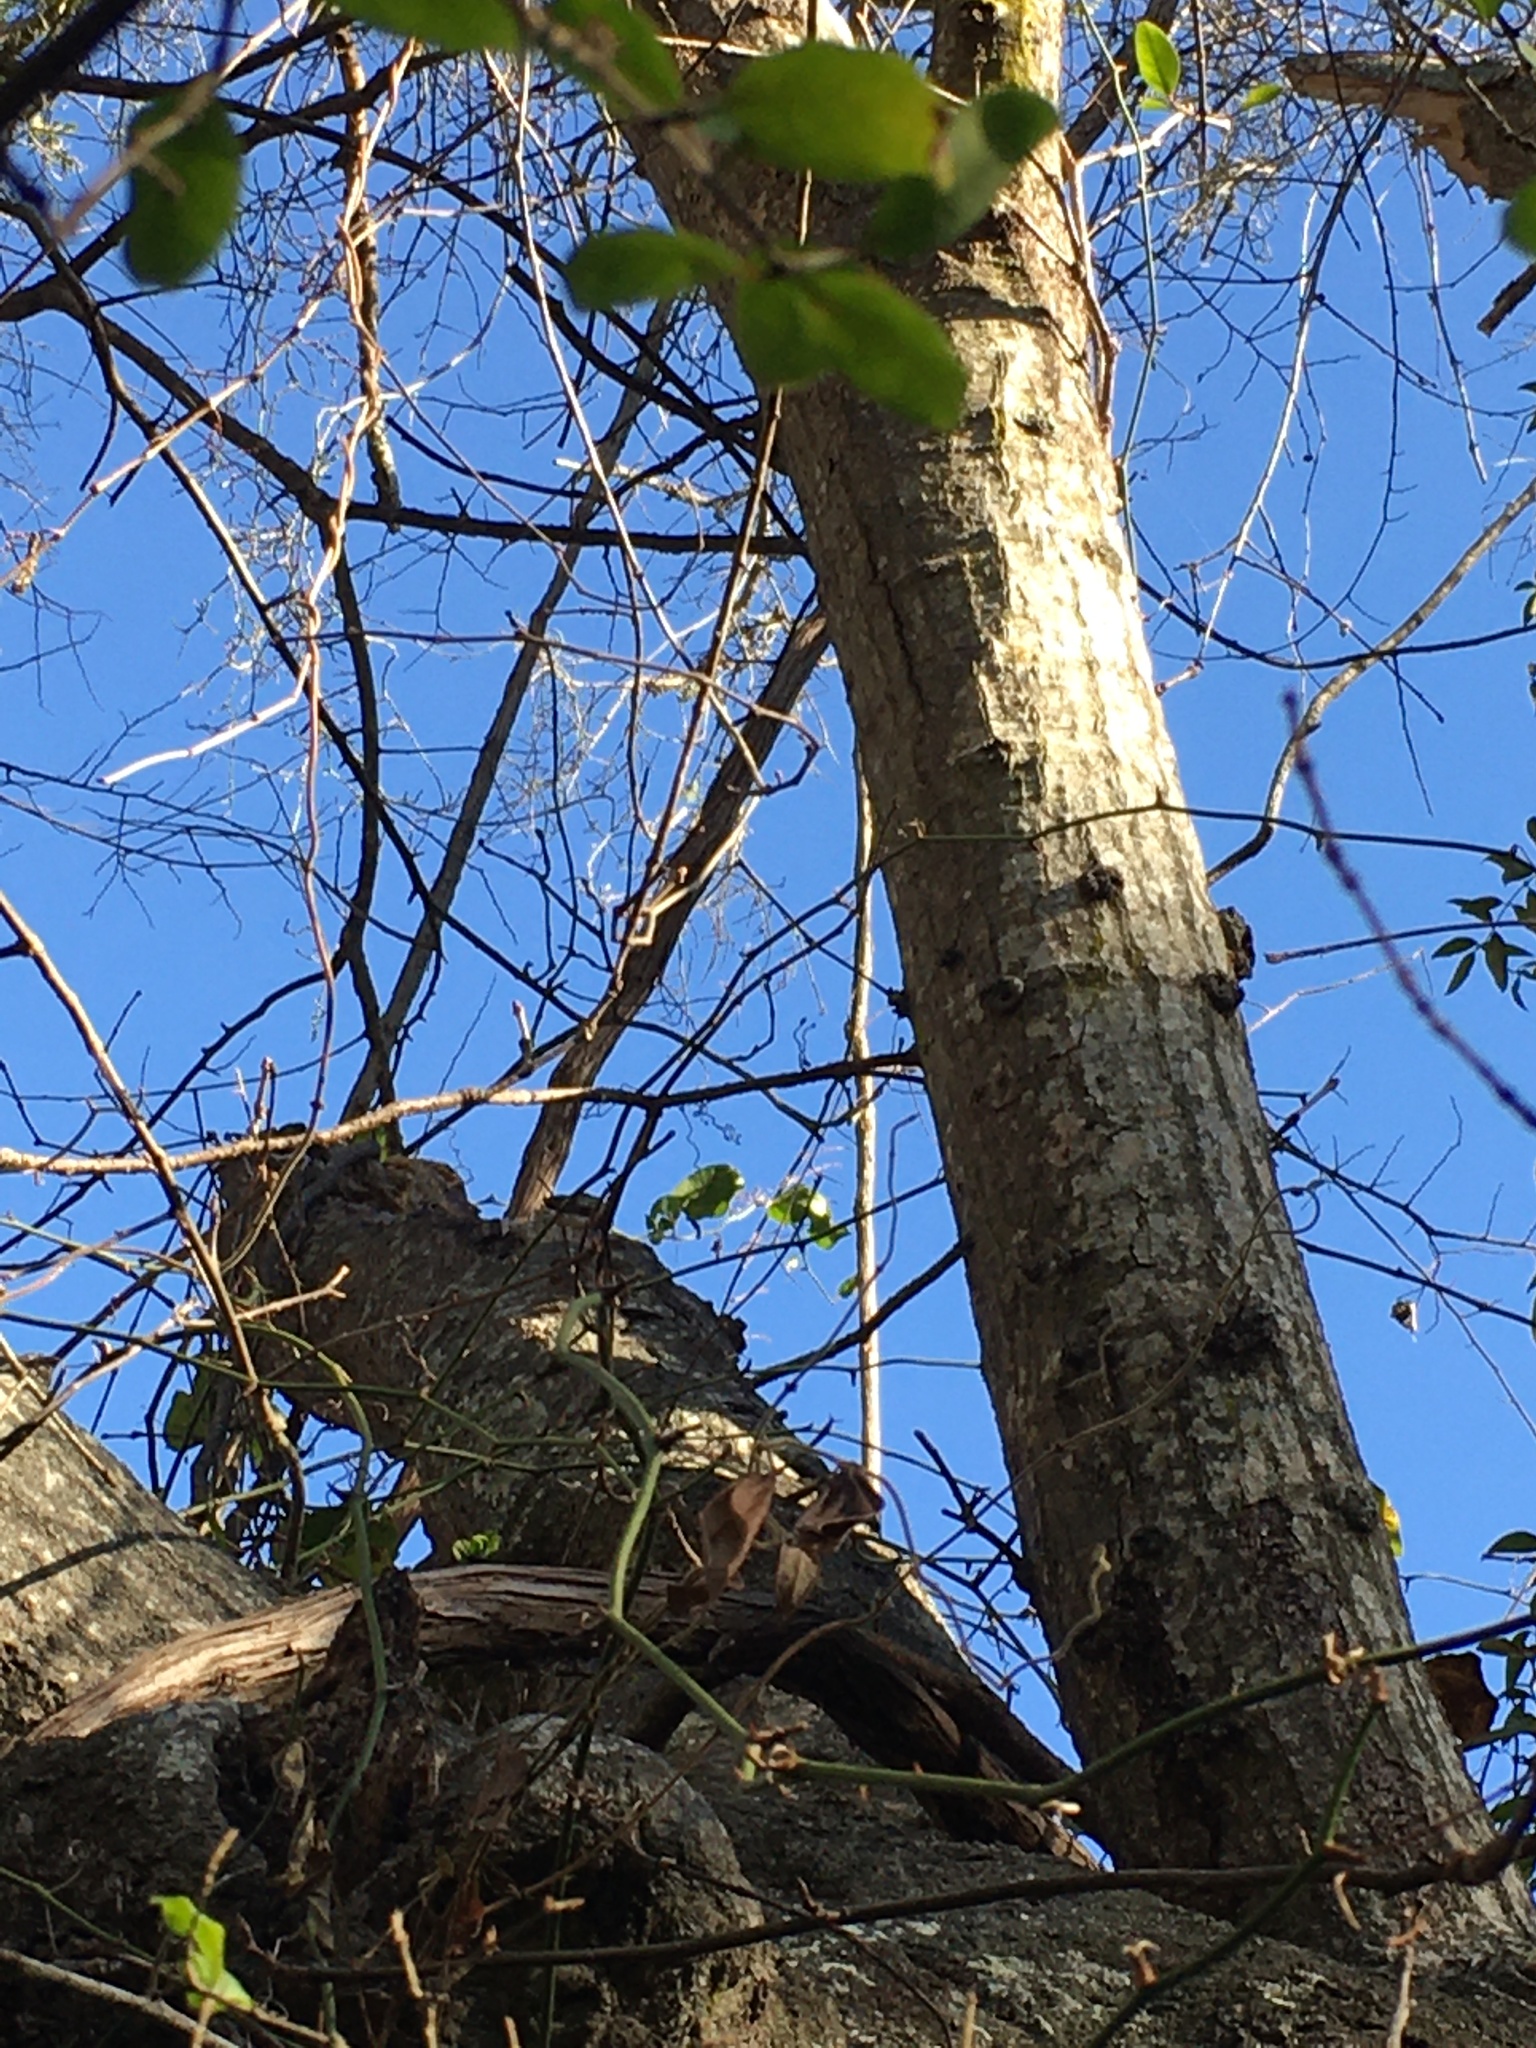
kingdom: Plantae
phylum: Tracheophyta
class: Magnoliopsida
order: Fagales
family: Fagaceae
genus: Quercus
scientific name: Quercus nigra
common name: Water oak
